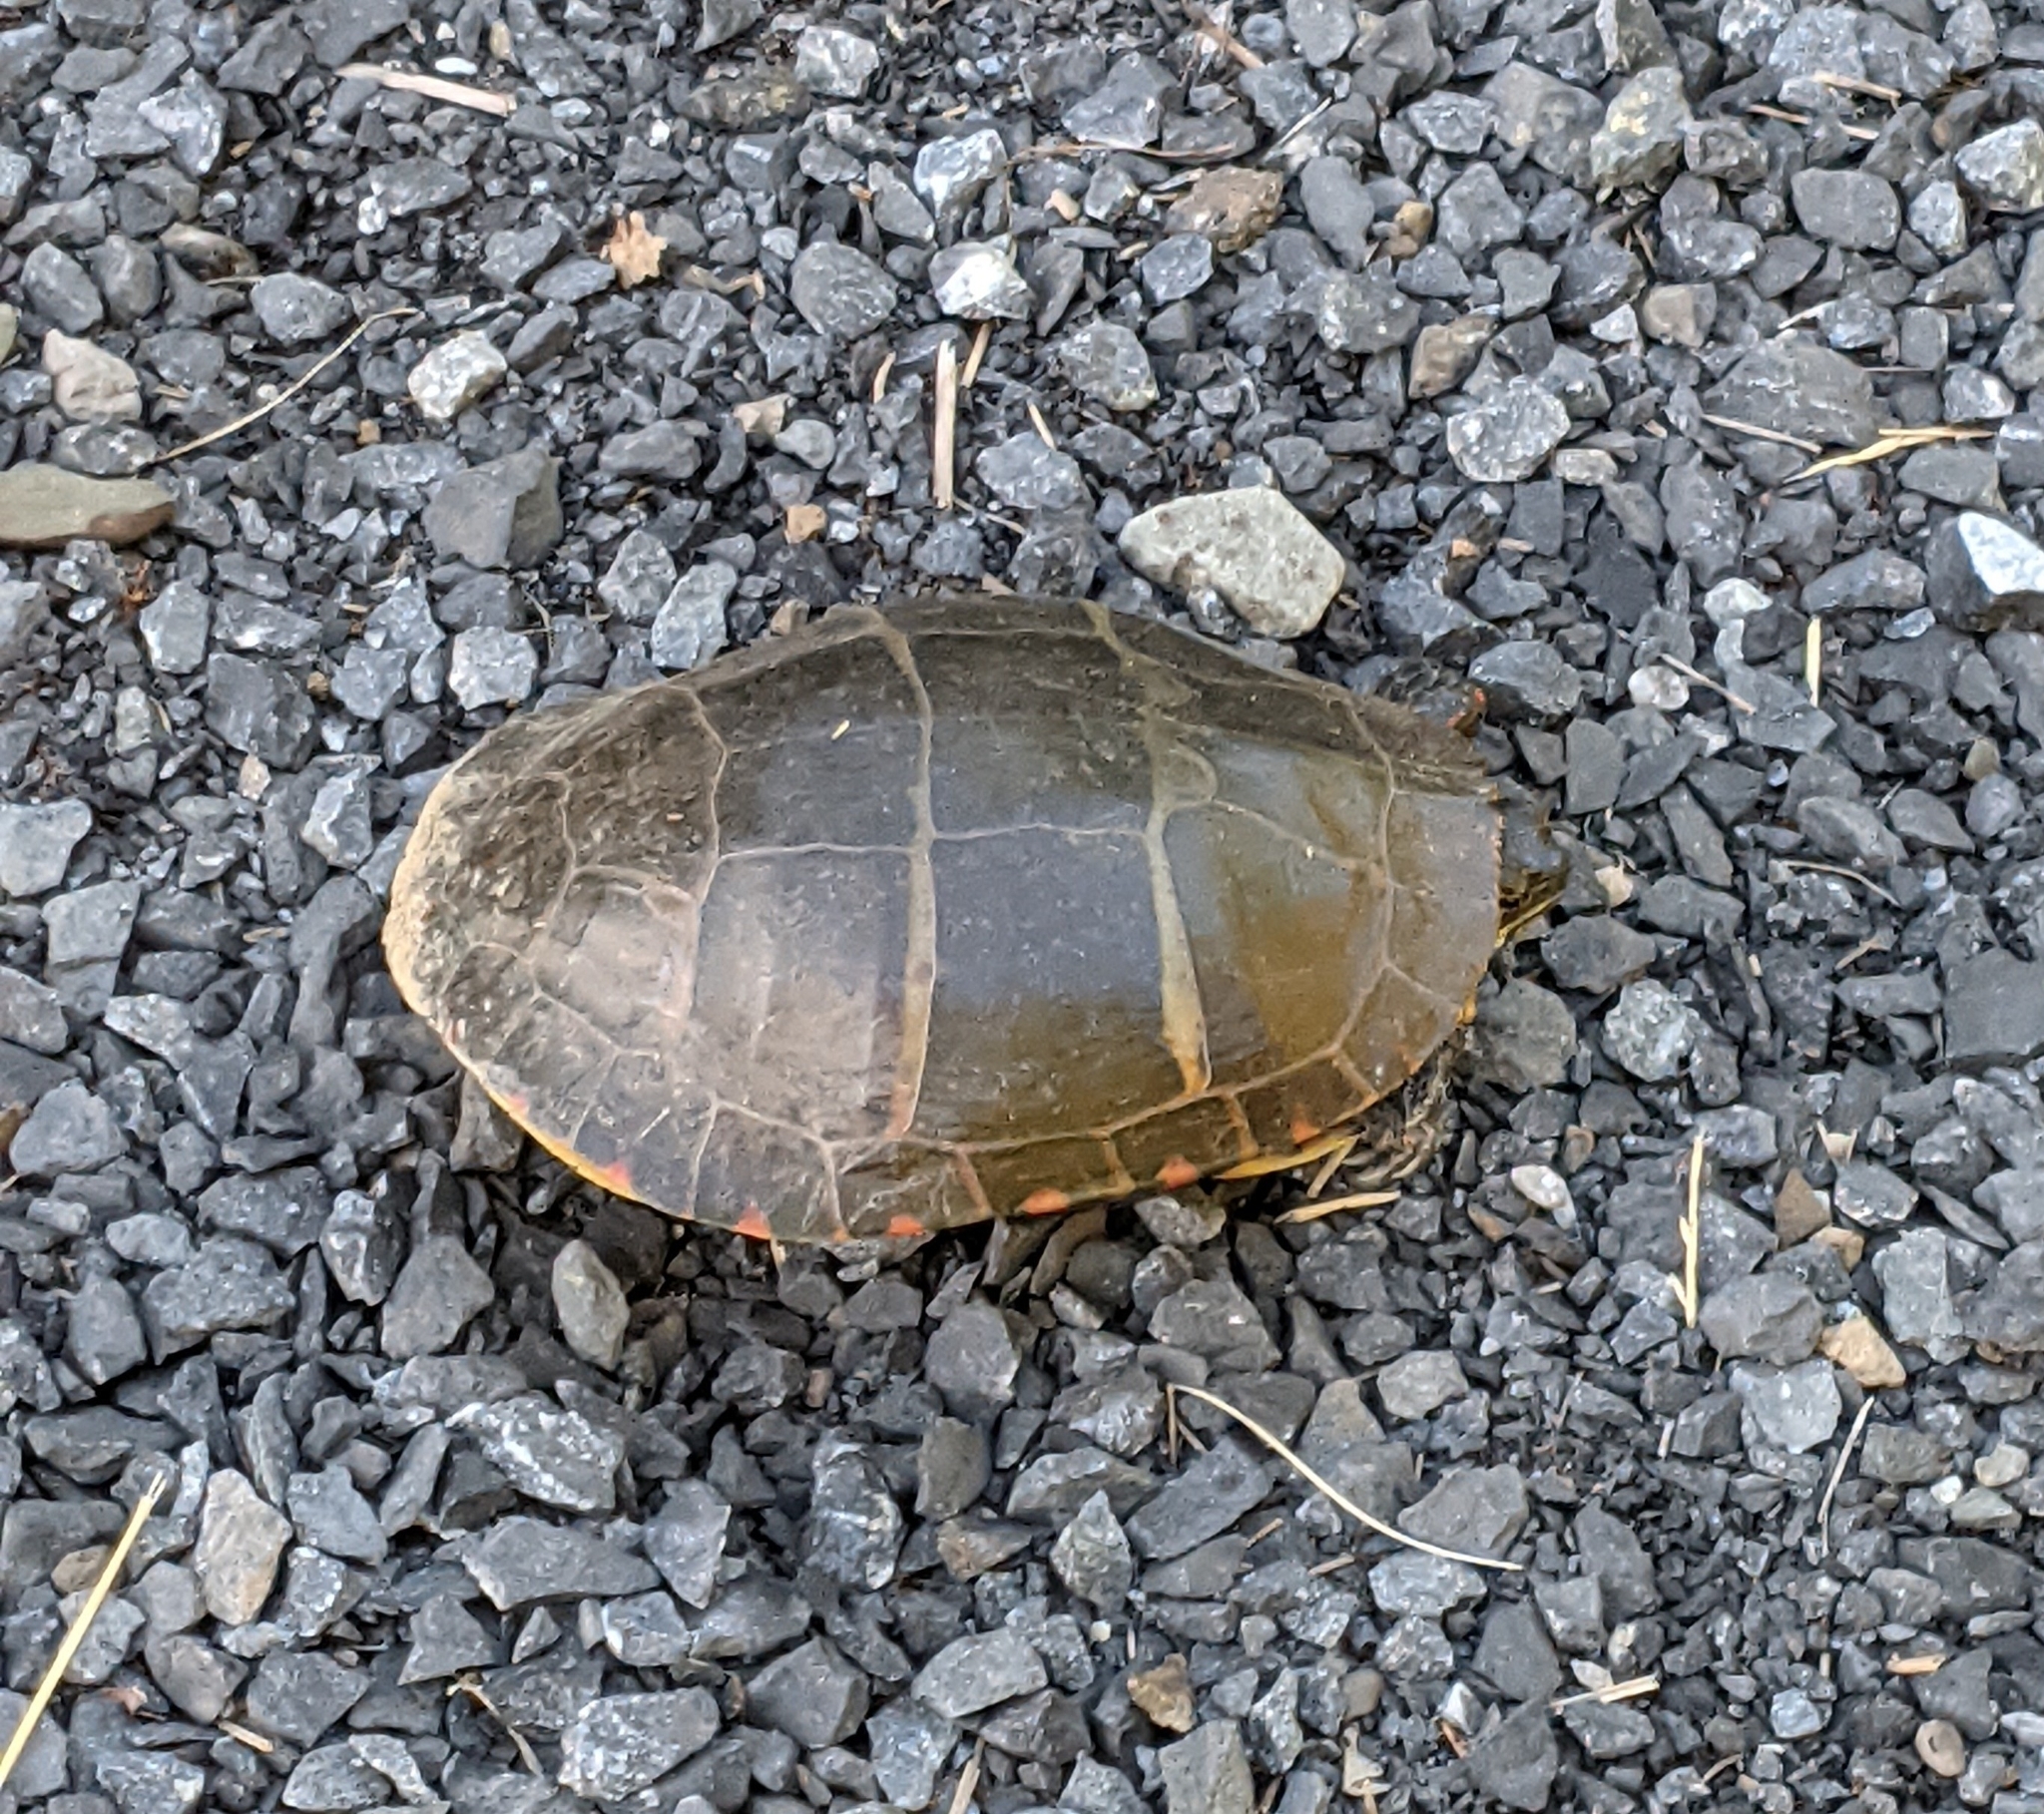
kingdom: Animalia
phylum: Chordata
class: Testudines
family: Emydidae
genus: Chrysemys
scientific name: Chrysemys picta
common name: Painted turtle
